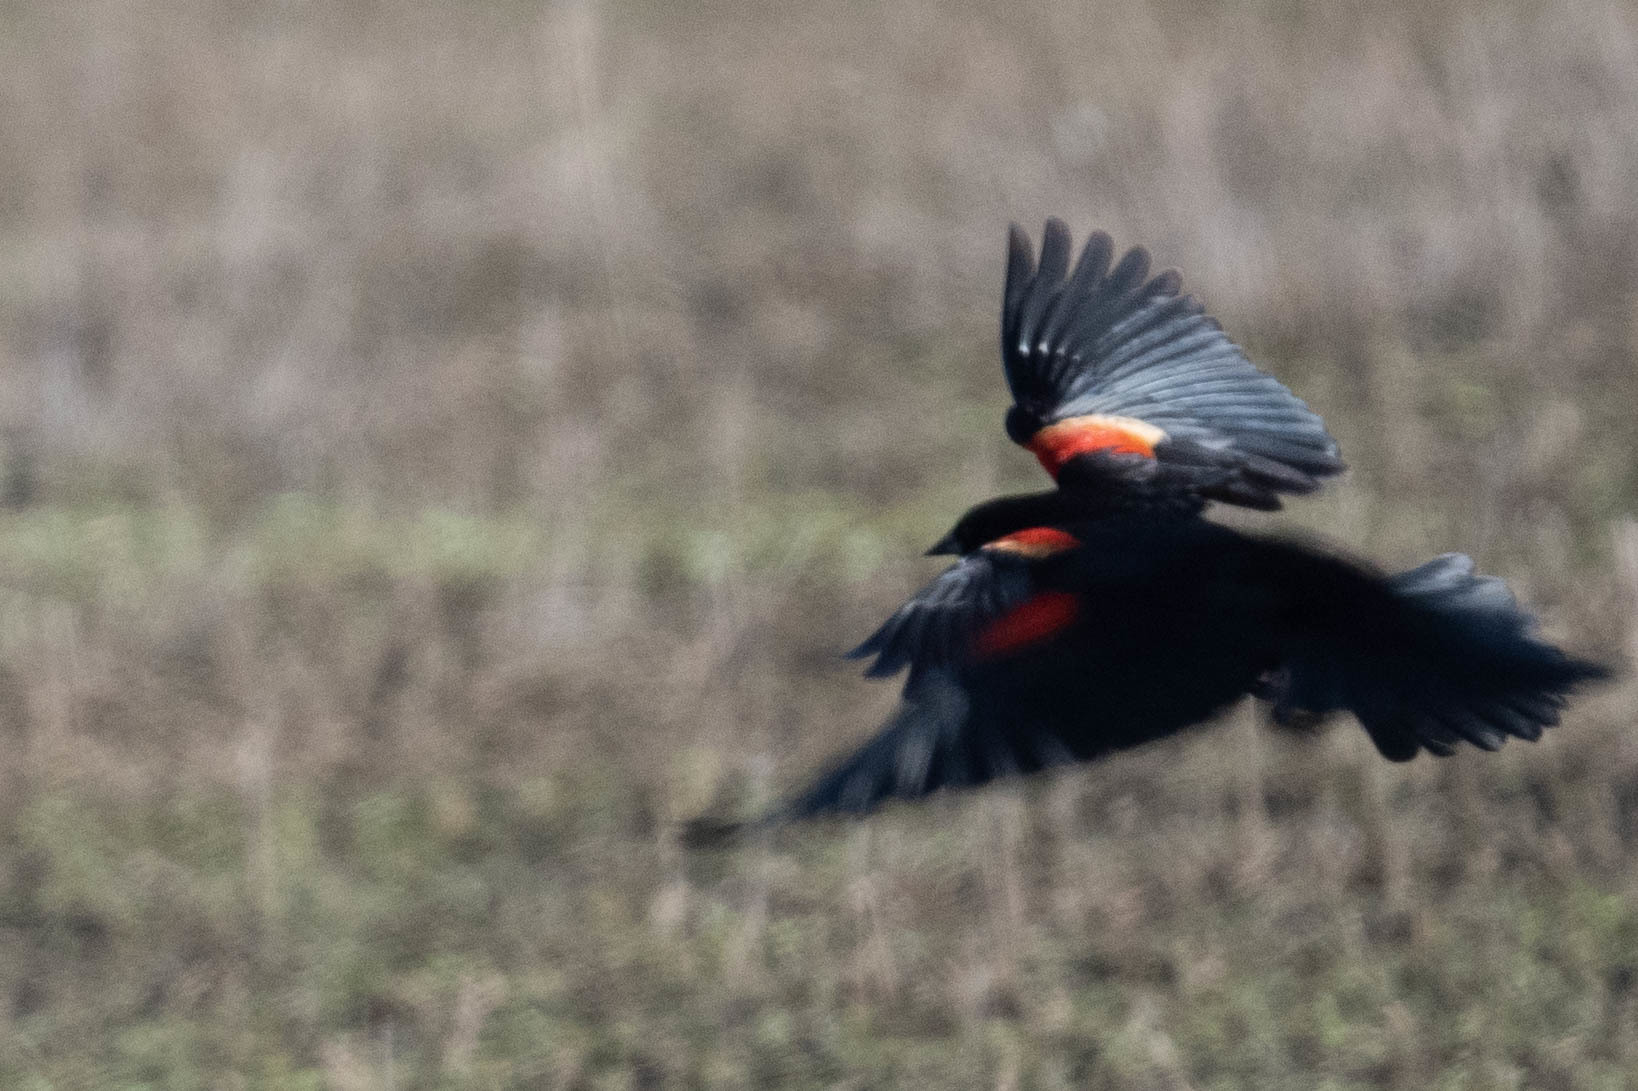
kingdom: Animalia
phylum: Chordata
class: Aves
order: Passeriformes
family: Icteridae
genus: Xanthocephalus
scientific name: Xanthocephalus xanthocephalus
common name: Yellow-headed blackbird
